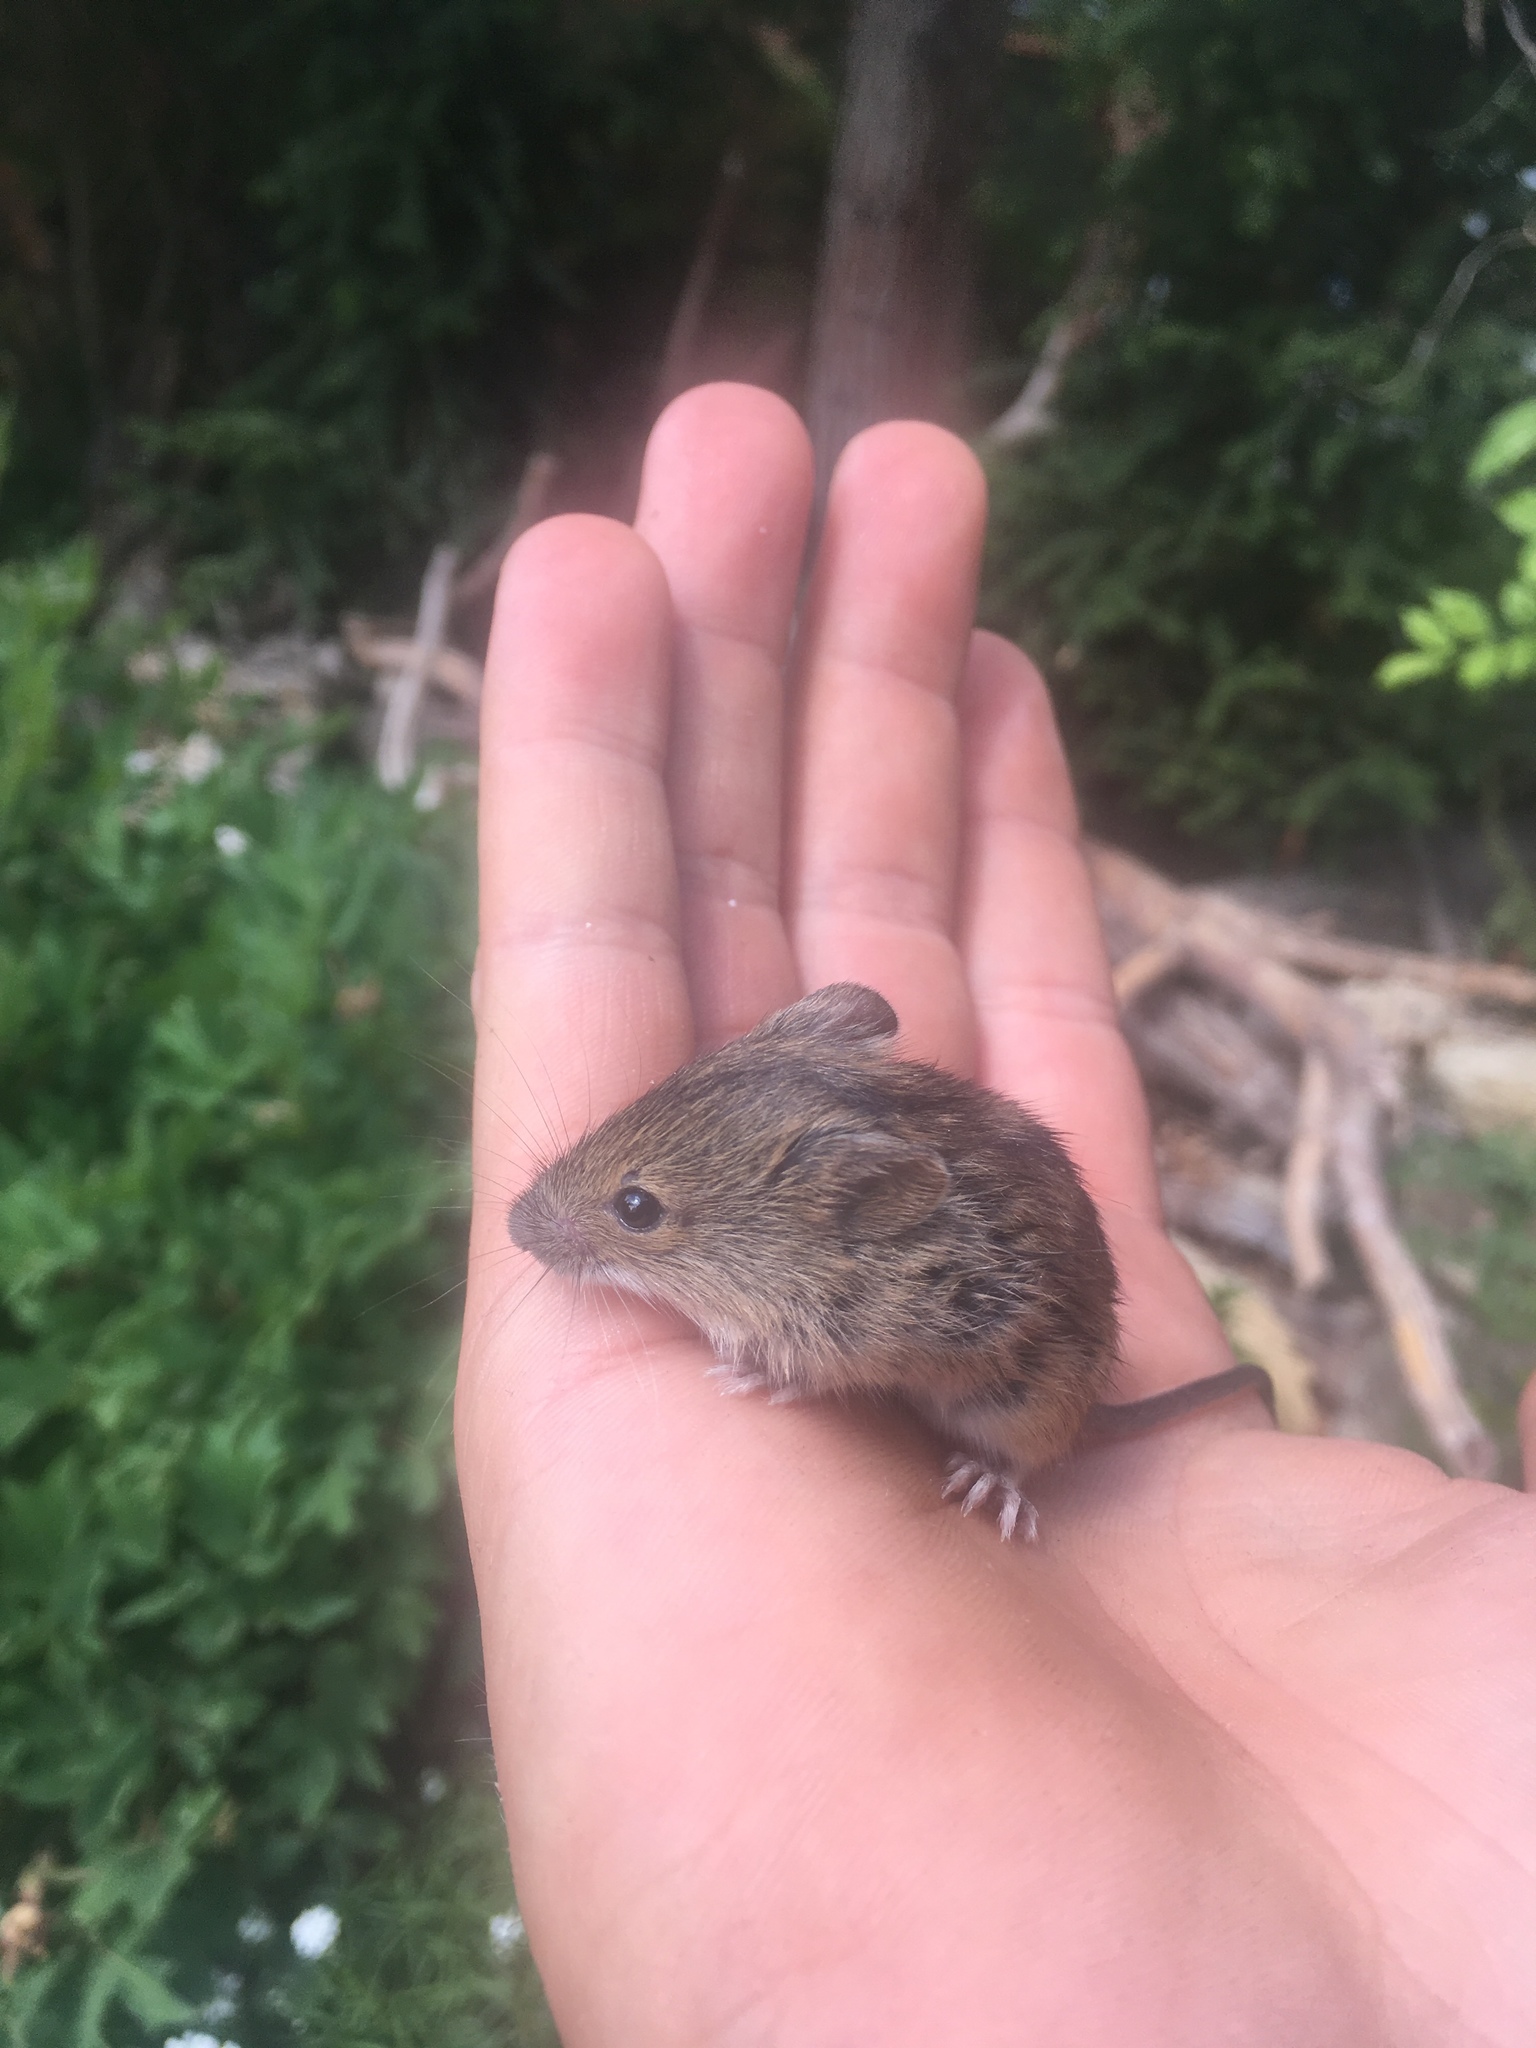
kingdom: Animalia
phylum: Chordata
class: Mammalia
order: Rodentia
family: Muridae
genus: Apodemus
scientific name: Apodemus agrarius
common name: Striped field mouse
